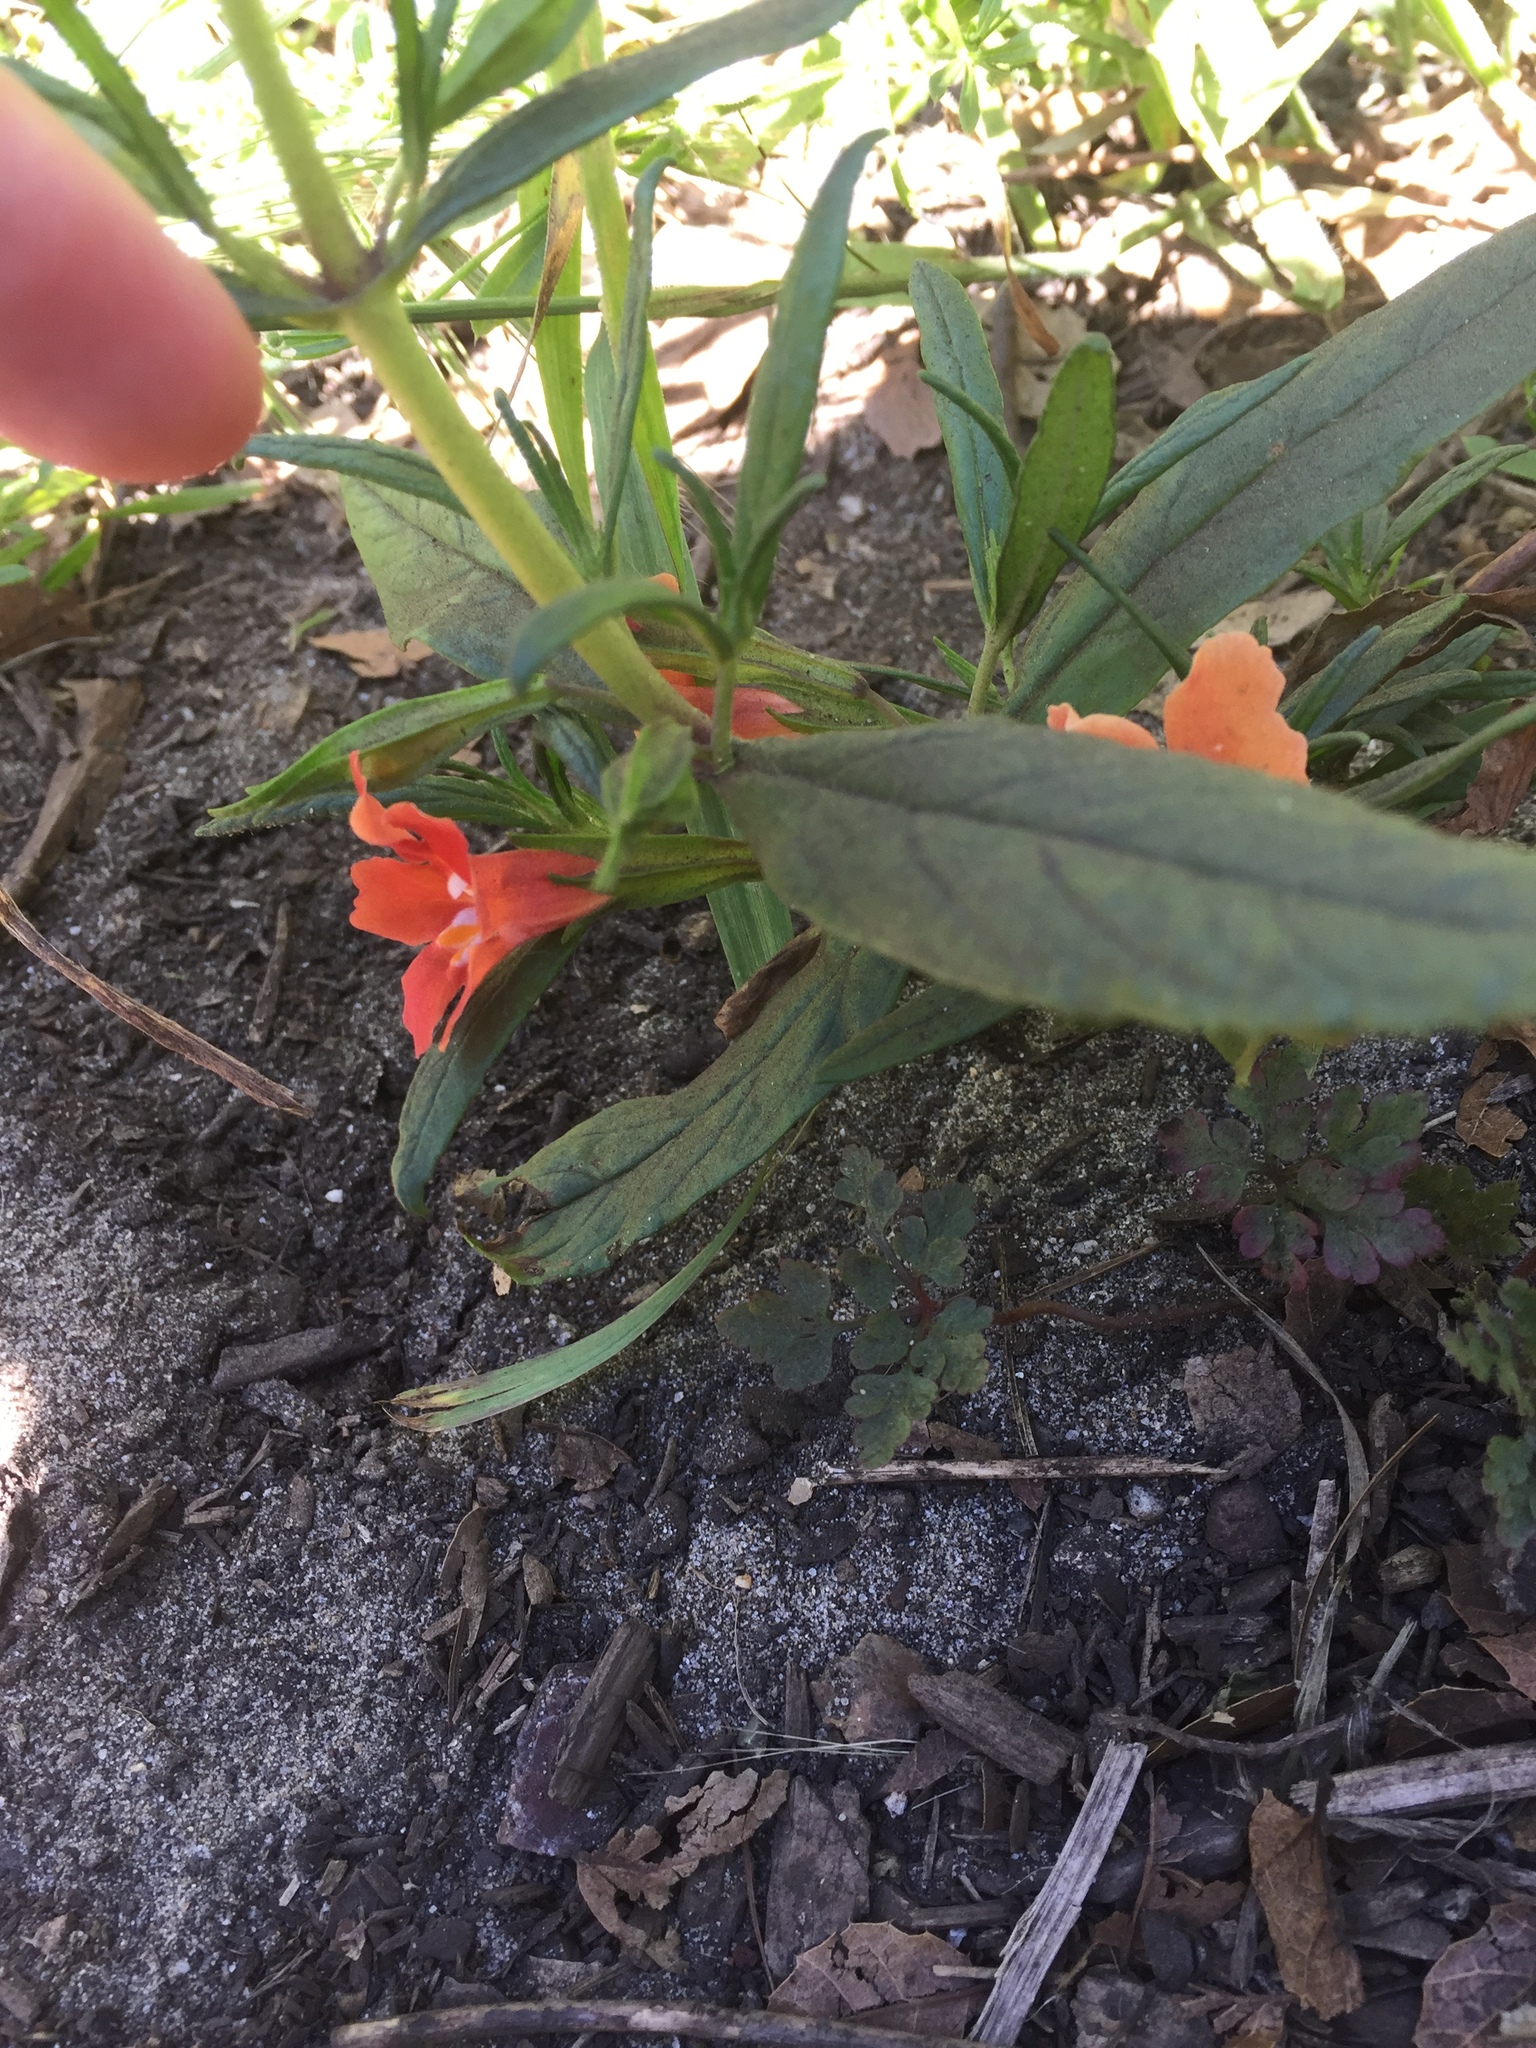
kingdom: Plantae
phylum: Tracheophyta
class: Magnoliopsida
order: Lamiales
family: Phrymaceae
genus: Diplacus
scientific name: Diplacus aurantiacus
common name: Bush monkey-flower
